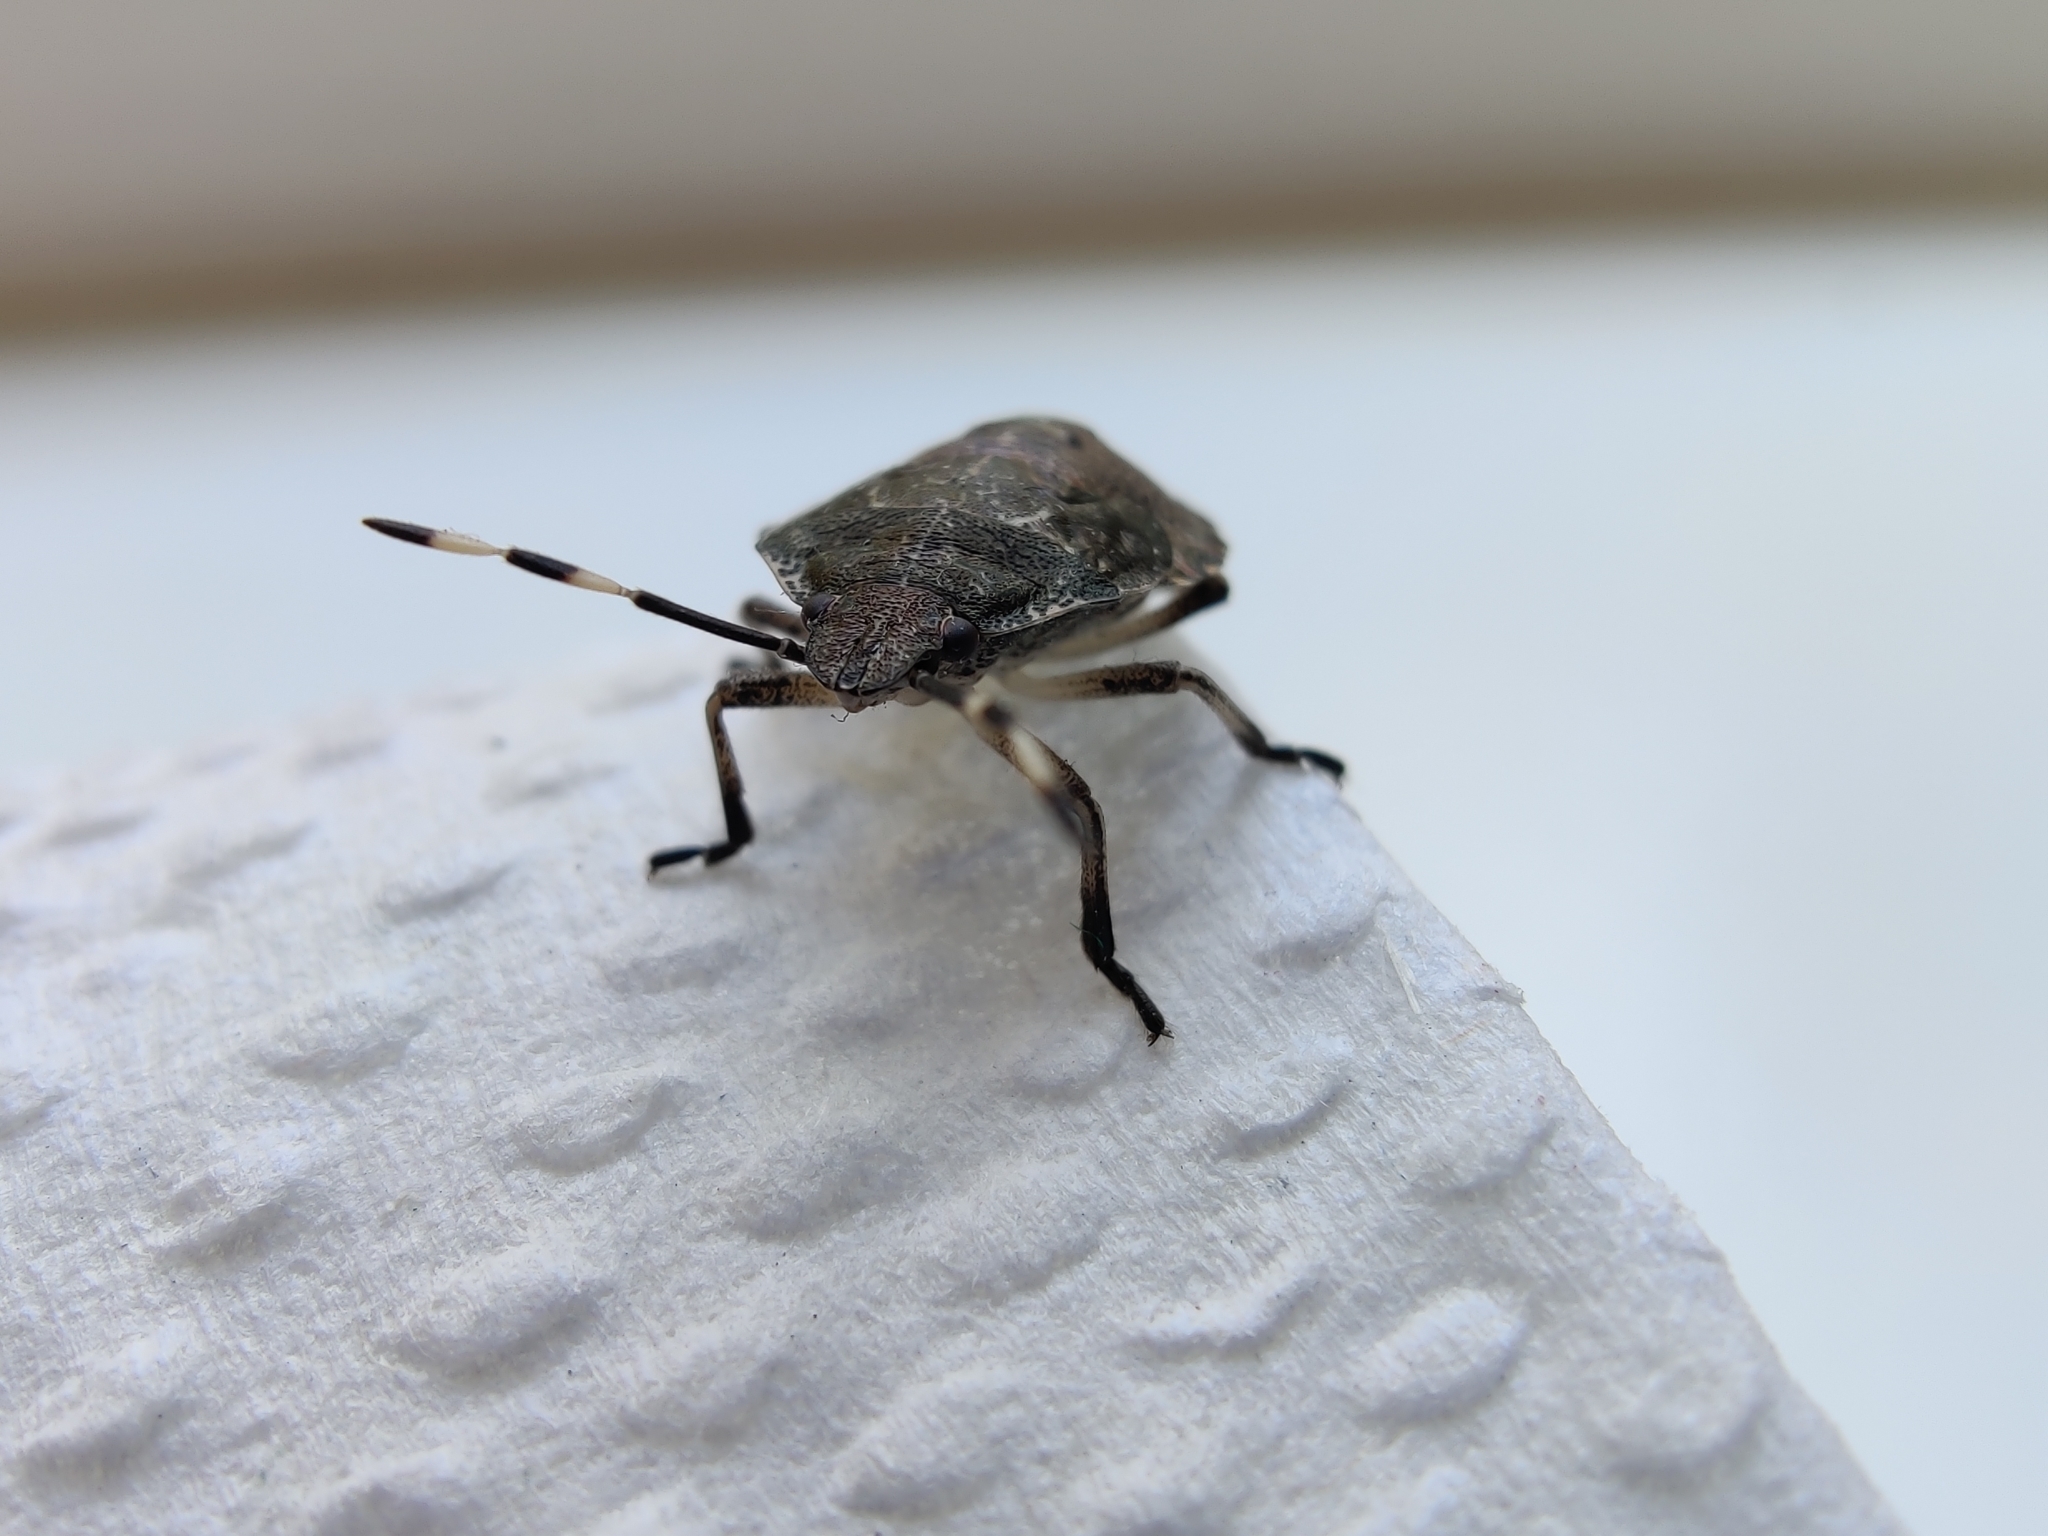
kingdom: Animalia
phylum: Arthropoda
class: Insecta
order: Hemiptera
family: Pentatomidae
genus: Rhaphigaster
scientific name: Rhaphigaster nebulosa
